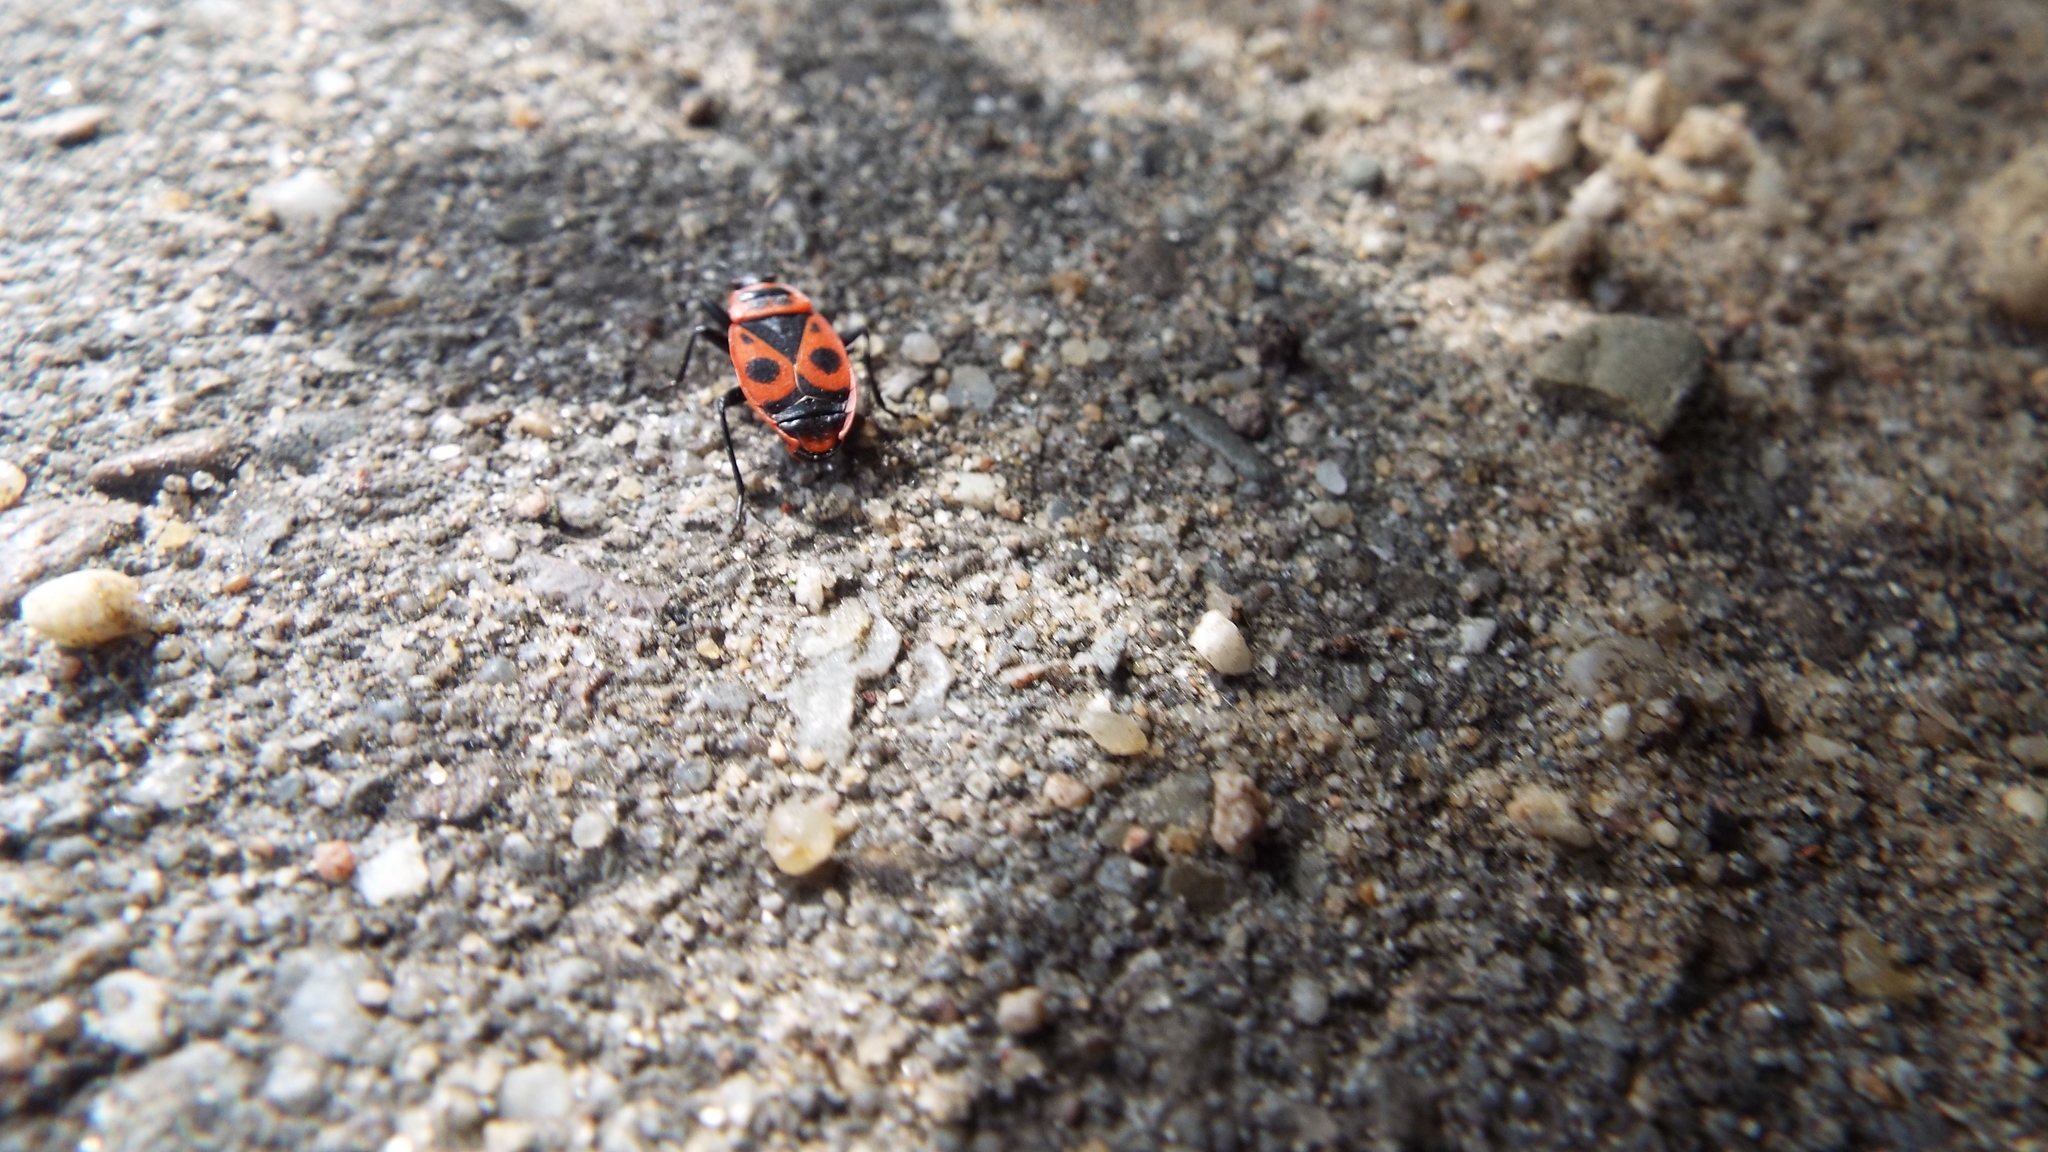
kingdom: Animalia
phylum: Arthropoda
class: Insecta
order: Hemiptera
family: Pyrrhocoridae
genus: Pyrrhocoris
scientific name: Pyrrhocoris apterus
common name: Firebug
